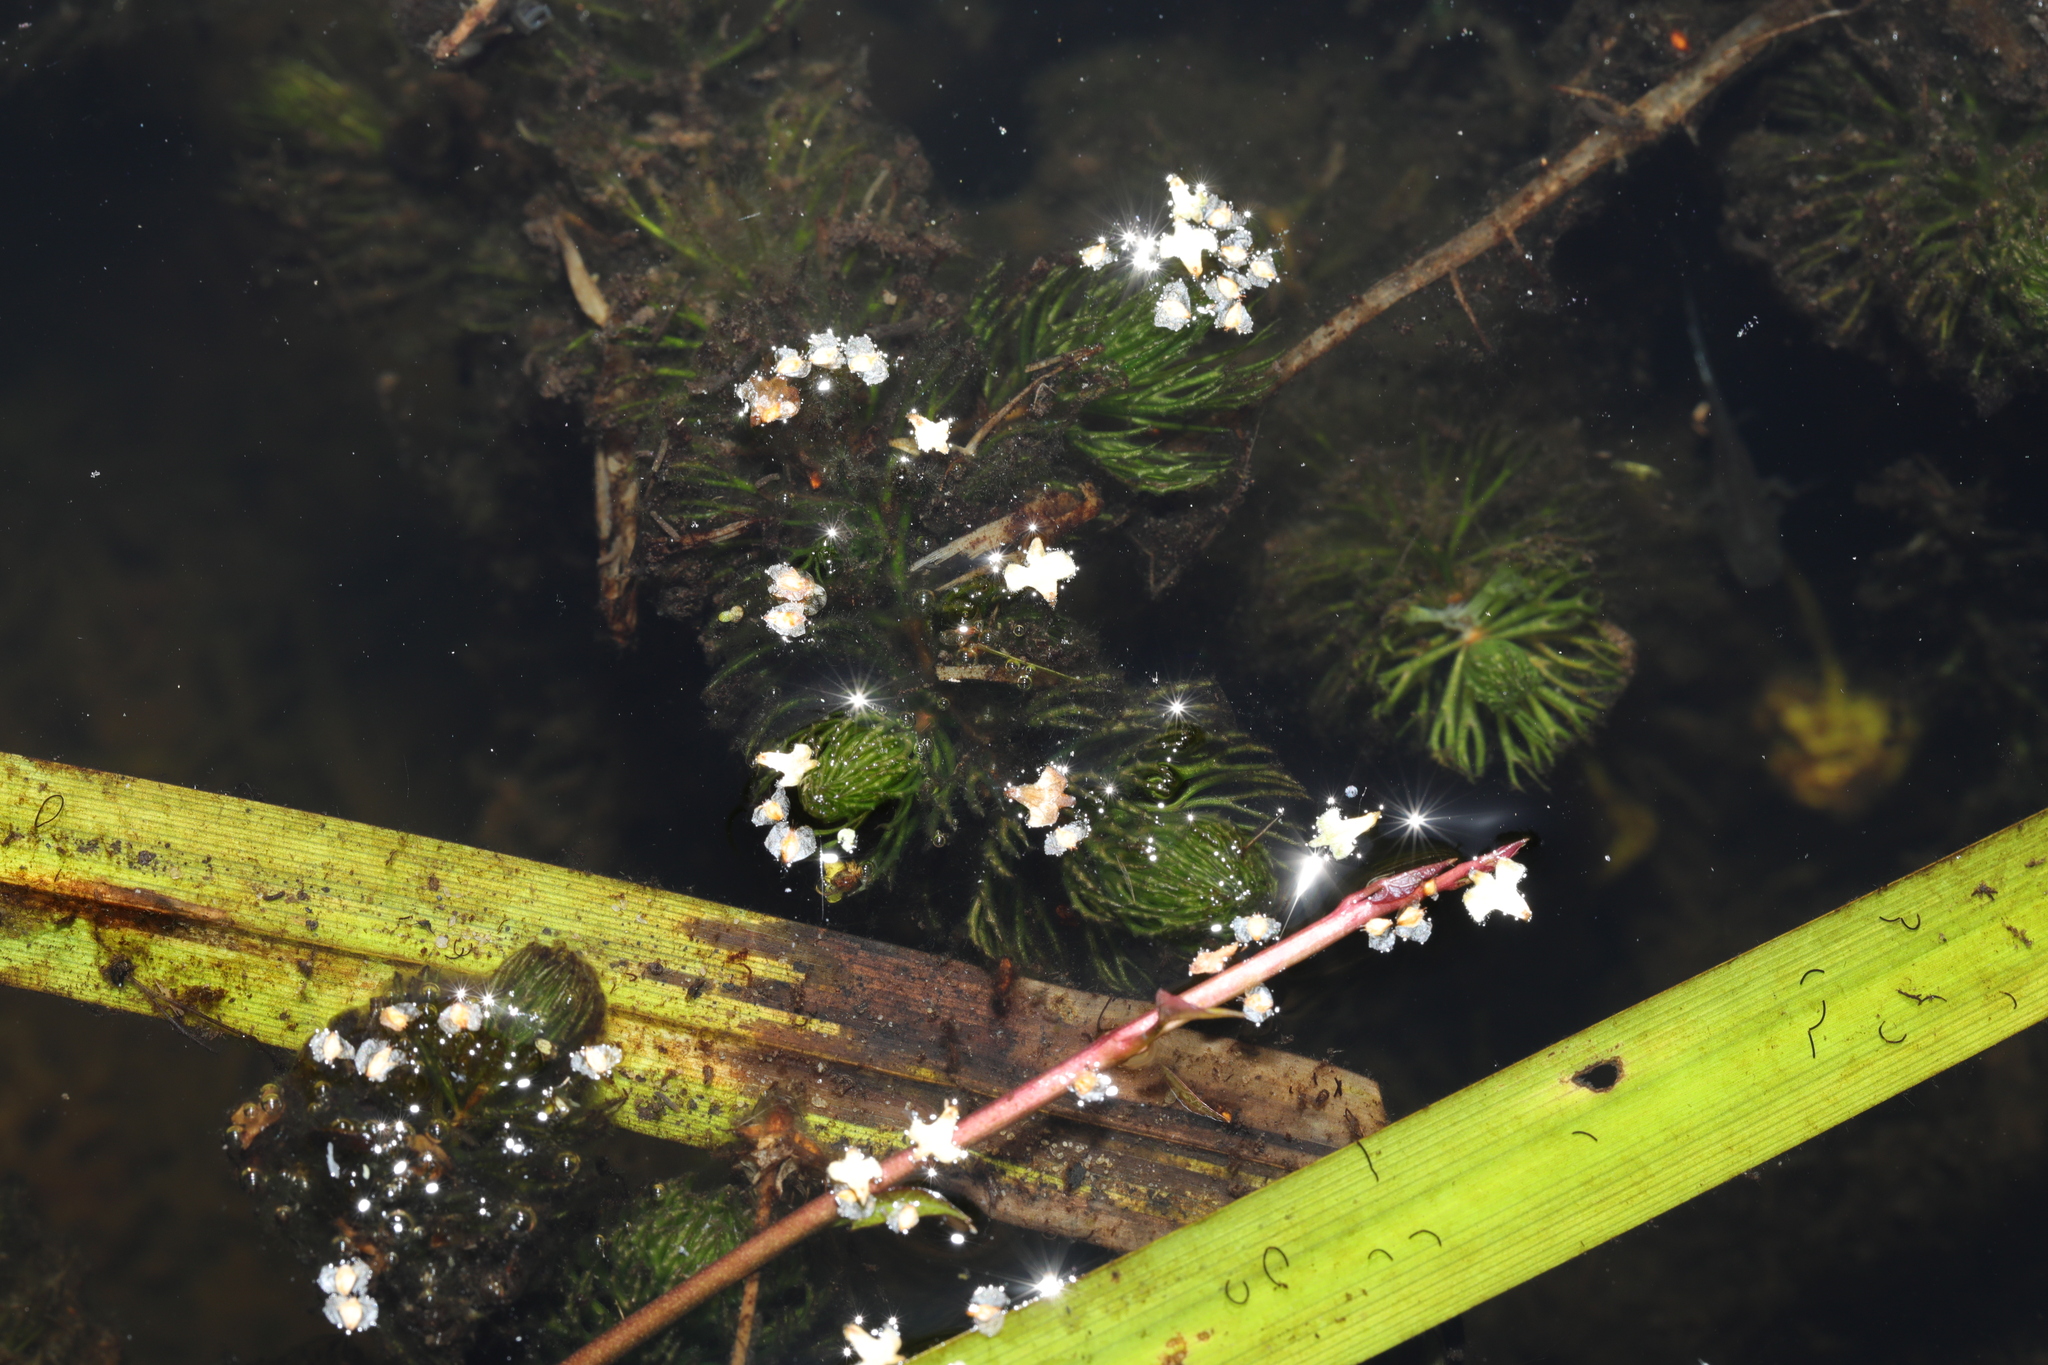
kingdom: Plantae
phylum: Tracheophyta
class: Magnoliopsida
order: Ceratophyllales
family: Ceratophyllaceae
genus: Ceratophyllum
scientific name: Ceratophyllum demersum
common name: Rigid hornwort
